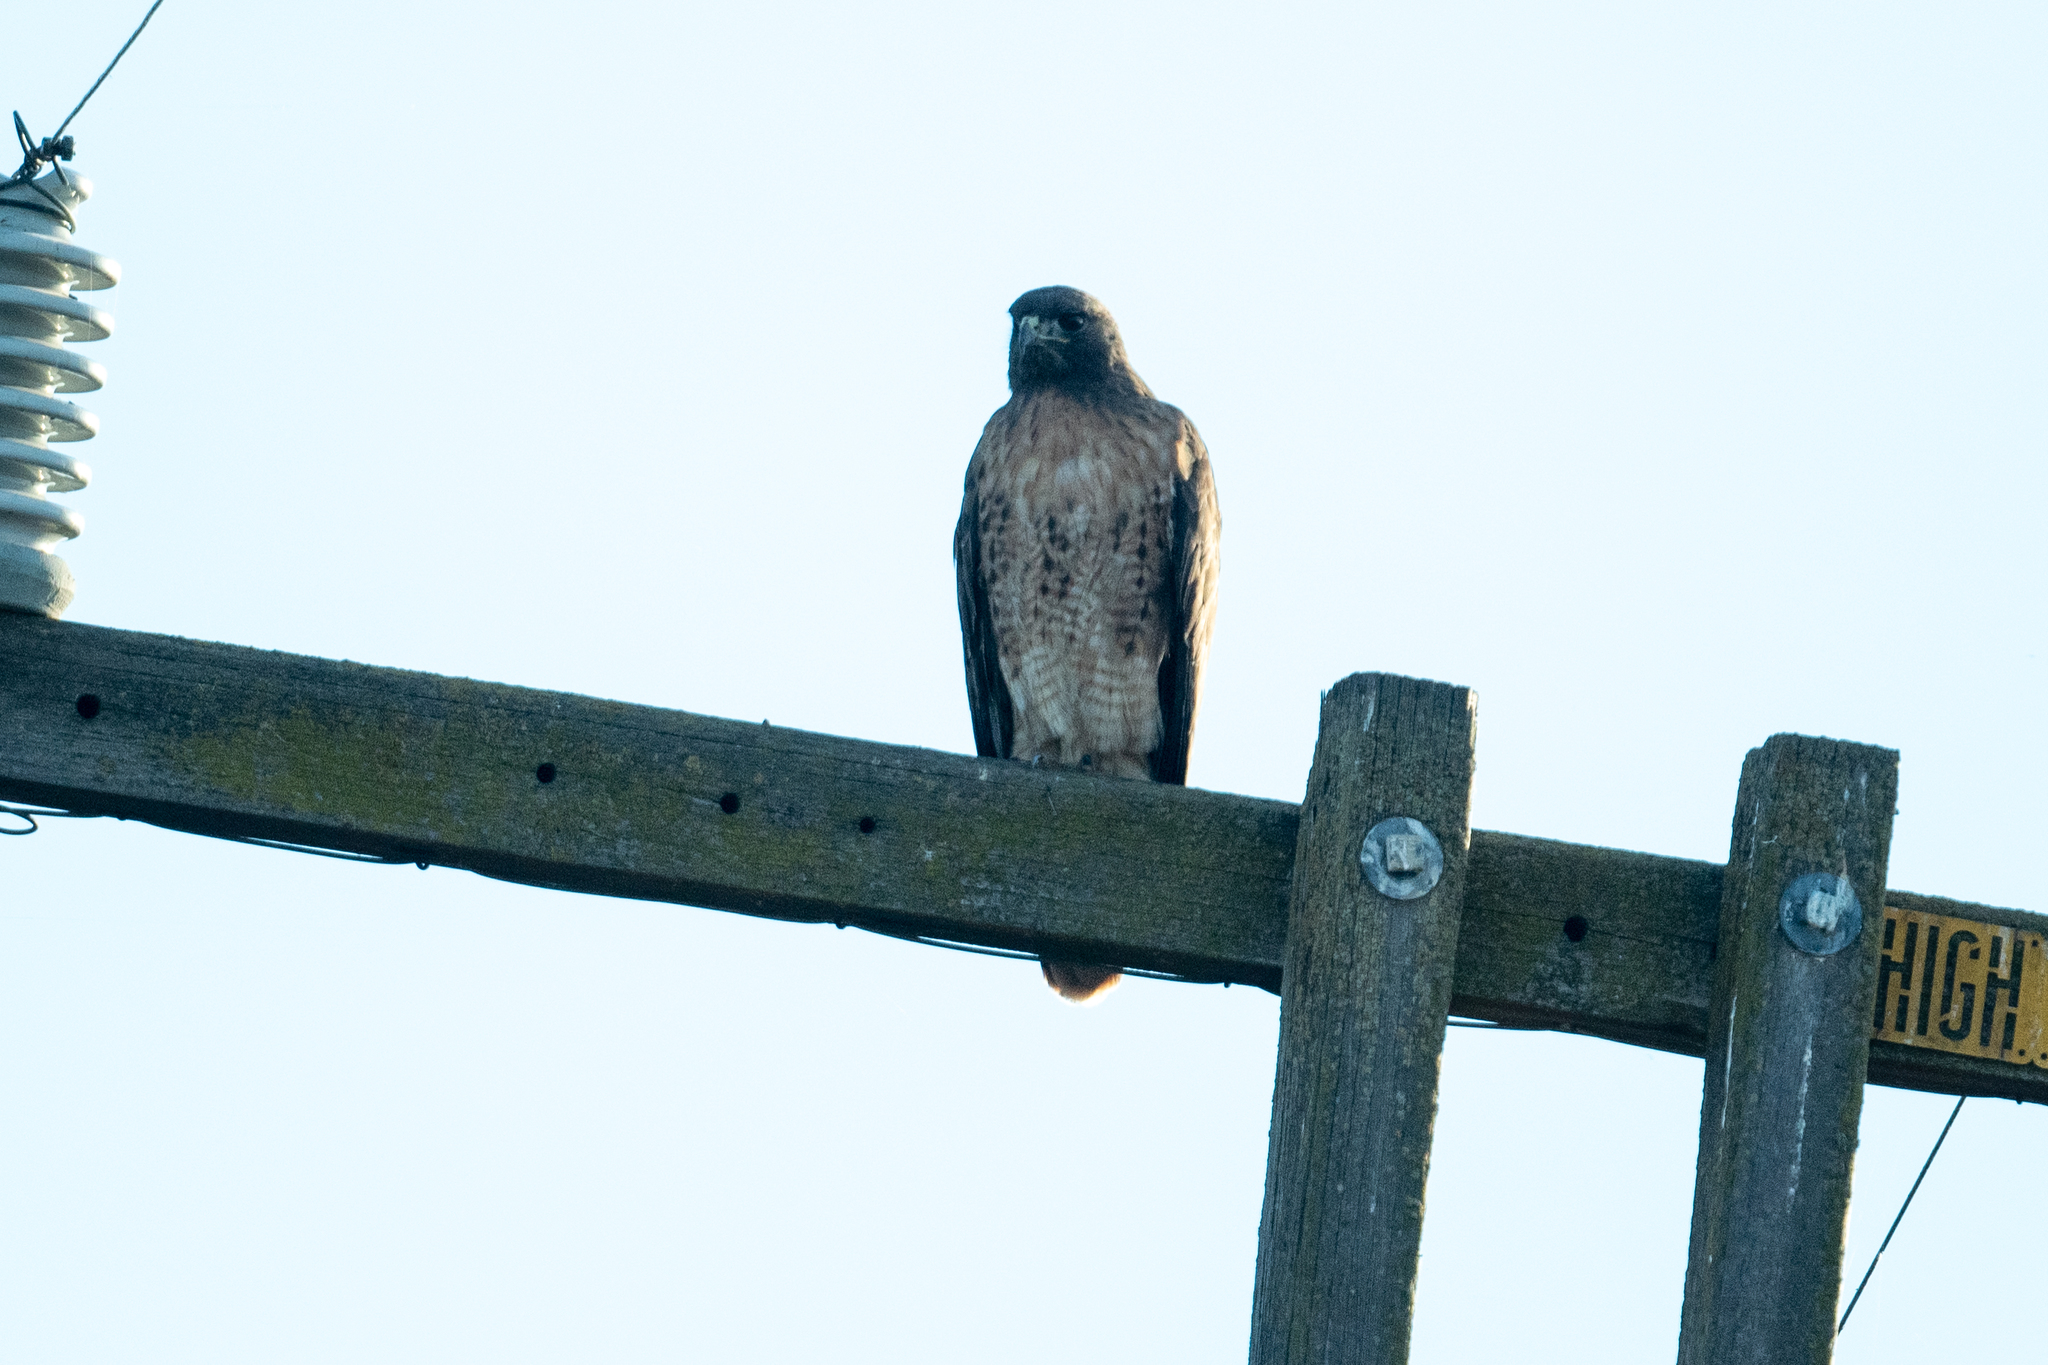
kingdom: Animalia
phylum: Chordata
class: Aves
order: Accipitriformes
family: Accipitridae
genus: Buteo
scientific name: Buteo jamaicensis
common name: Red-tailed hawk
